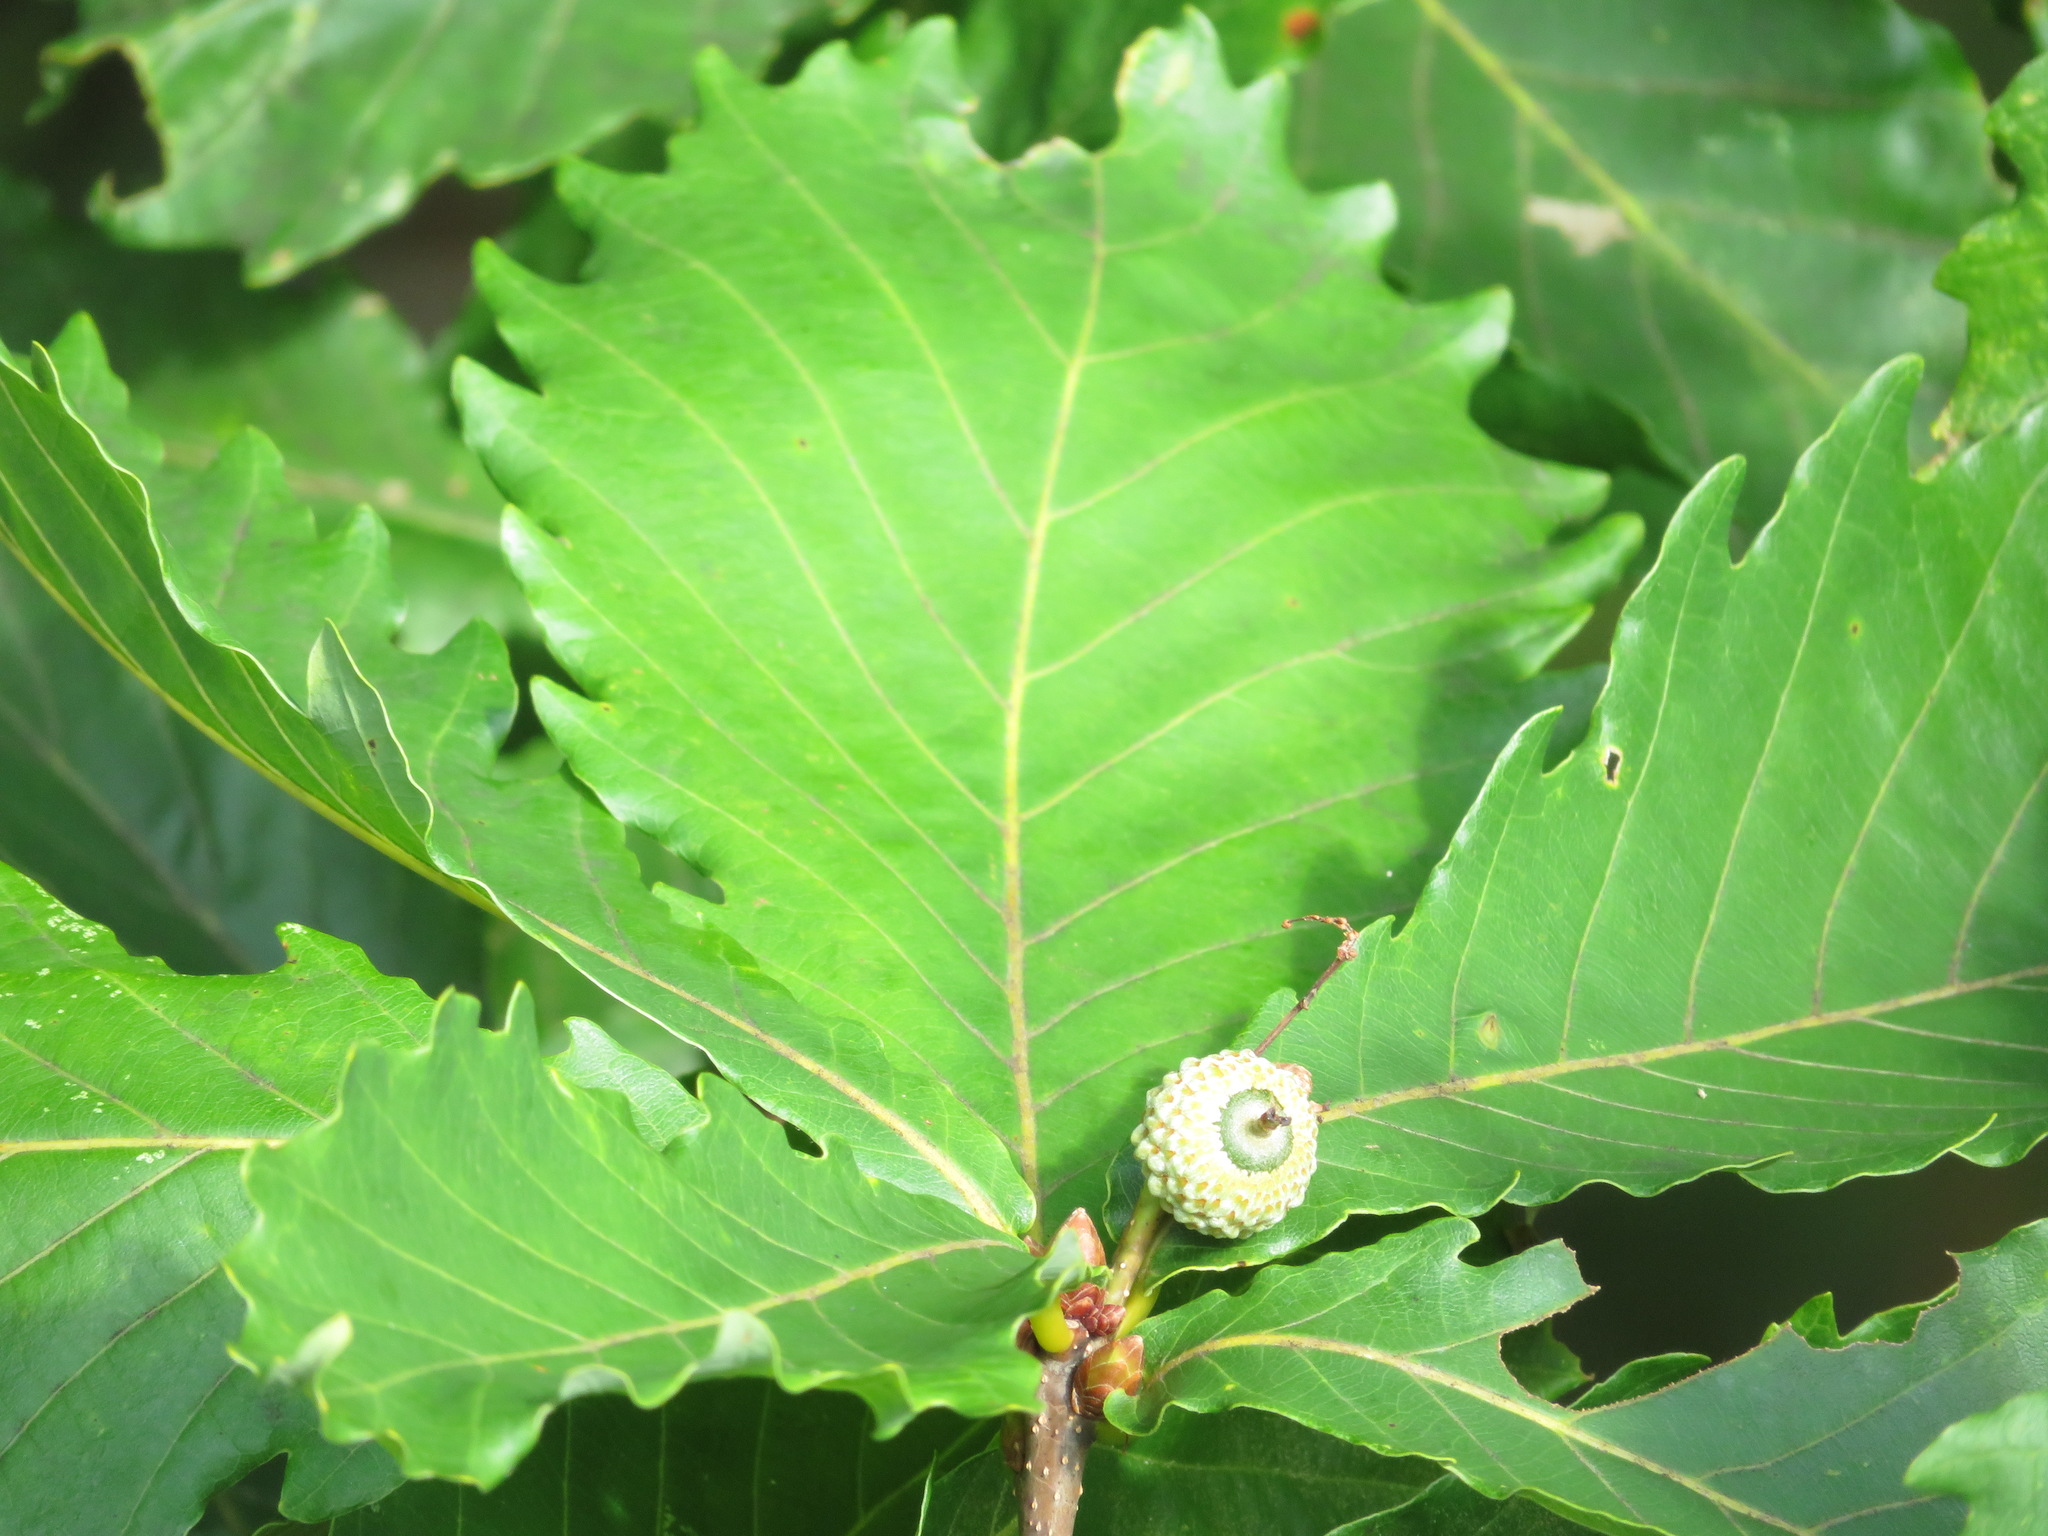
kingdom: Plantae
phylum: Tracheophyta
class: Magnoliopsida
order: Fagales
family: Fagaceae
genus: Quercus
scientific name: Quercus crispula
